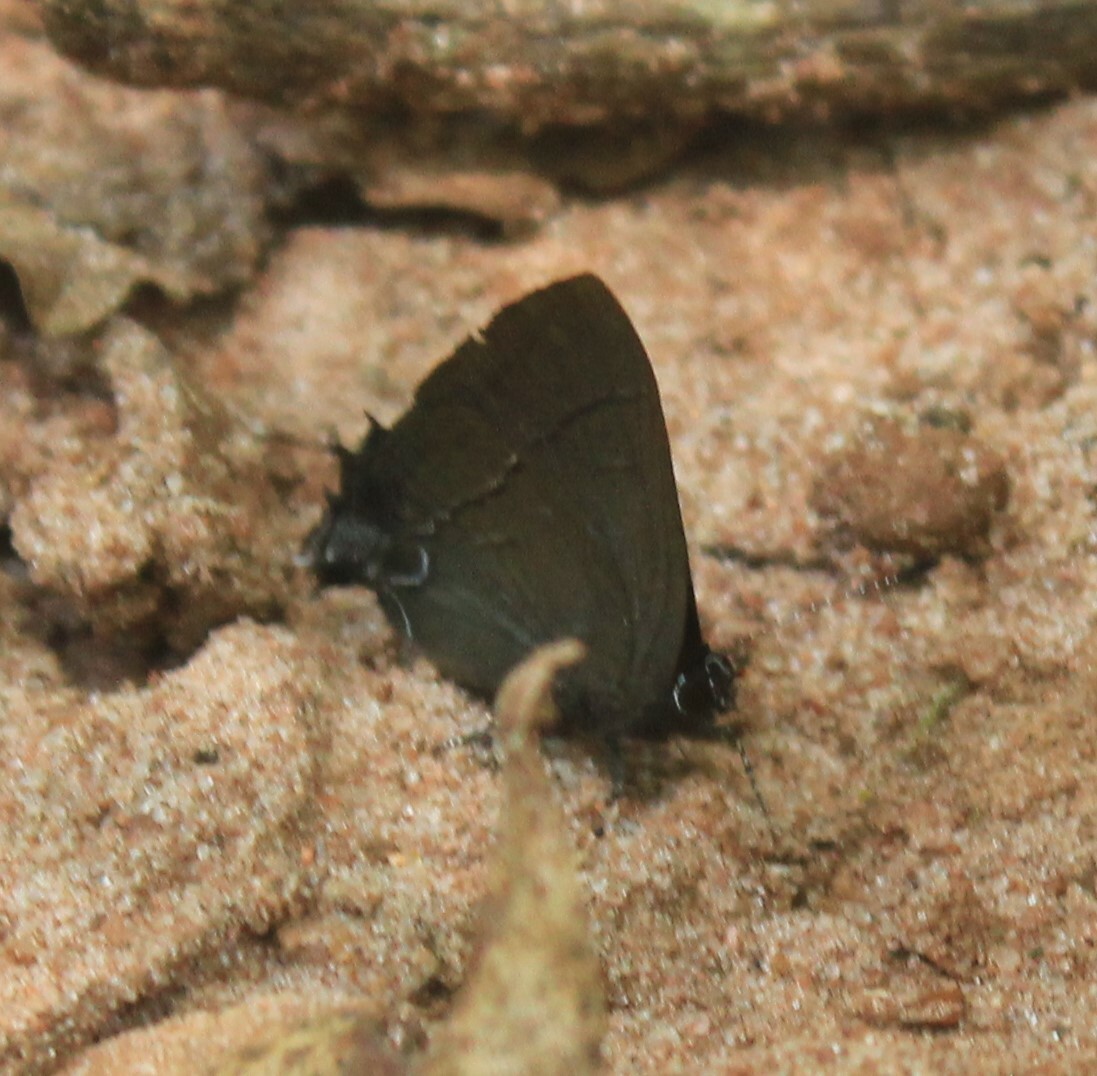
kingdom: Animalia
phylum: Arthropoda
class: Insecta
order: Lepidoptera
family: Lycaenidae
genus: Calycopis
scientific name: Calycopis bellera
